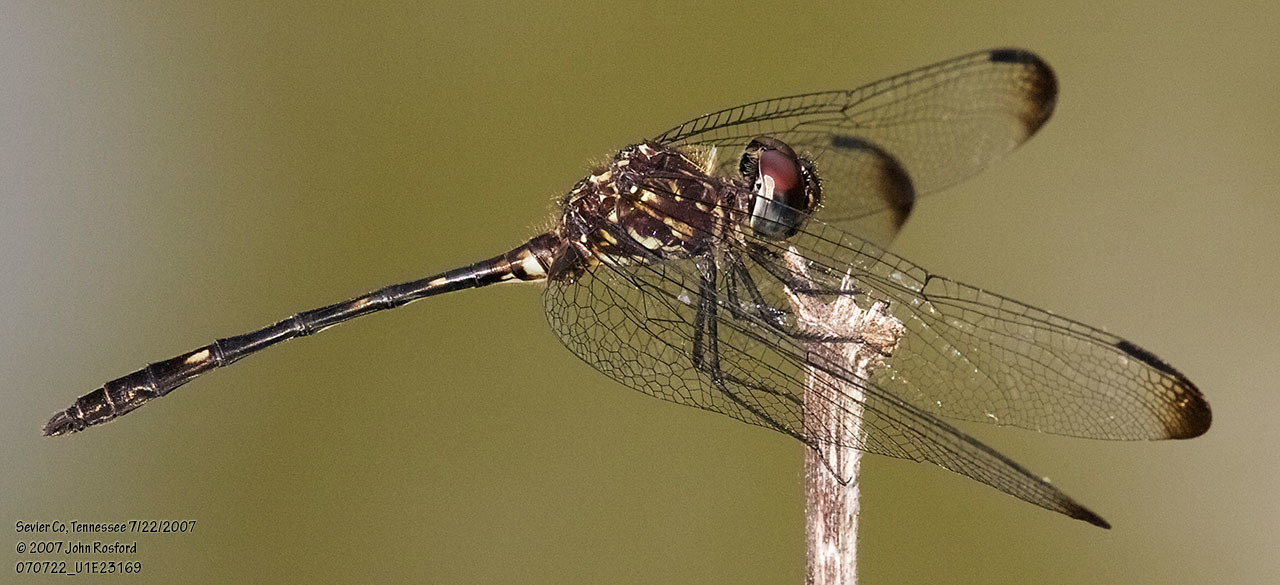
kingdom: Animalia
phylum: Arthropoda
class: Insecta
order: Odonata
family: Libellulidae
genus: Dythemis
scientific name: Dythemis velox
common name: Swift setwing
